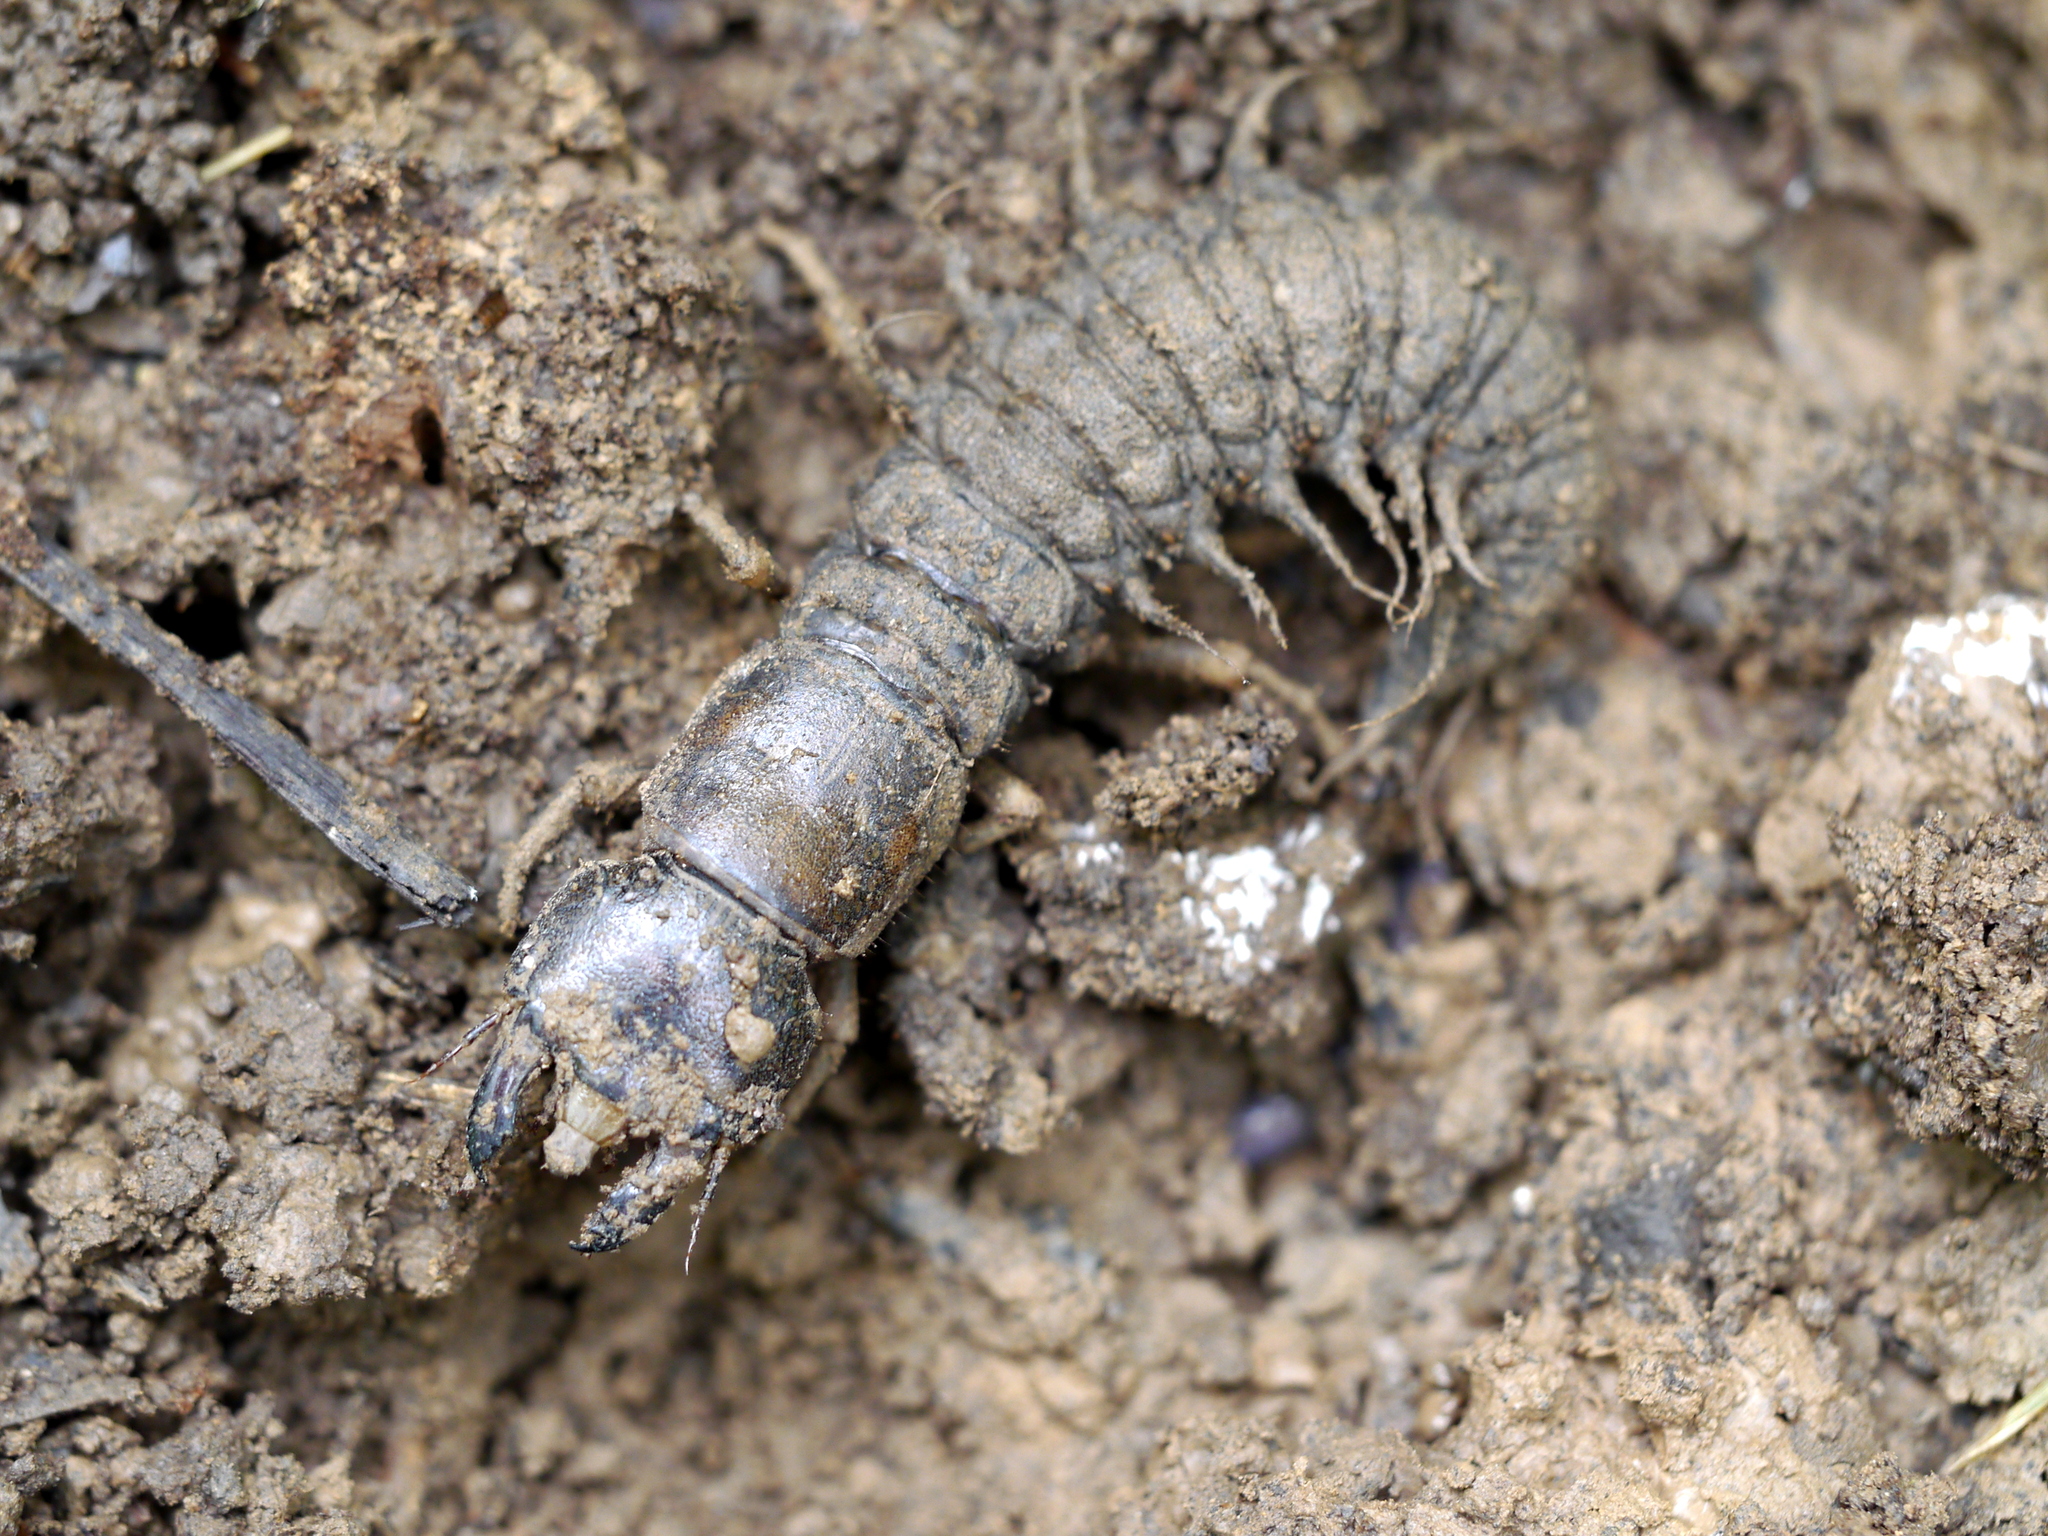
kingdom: Animalia
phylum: Arthropoda
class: Insecta
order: Megaloptera
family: Corydalidae
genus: Corydalus
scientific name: Corydalus cornutus
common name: Dobsonfly
